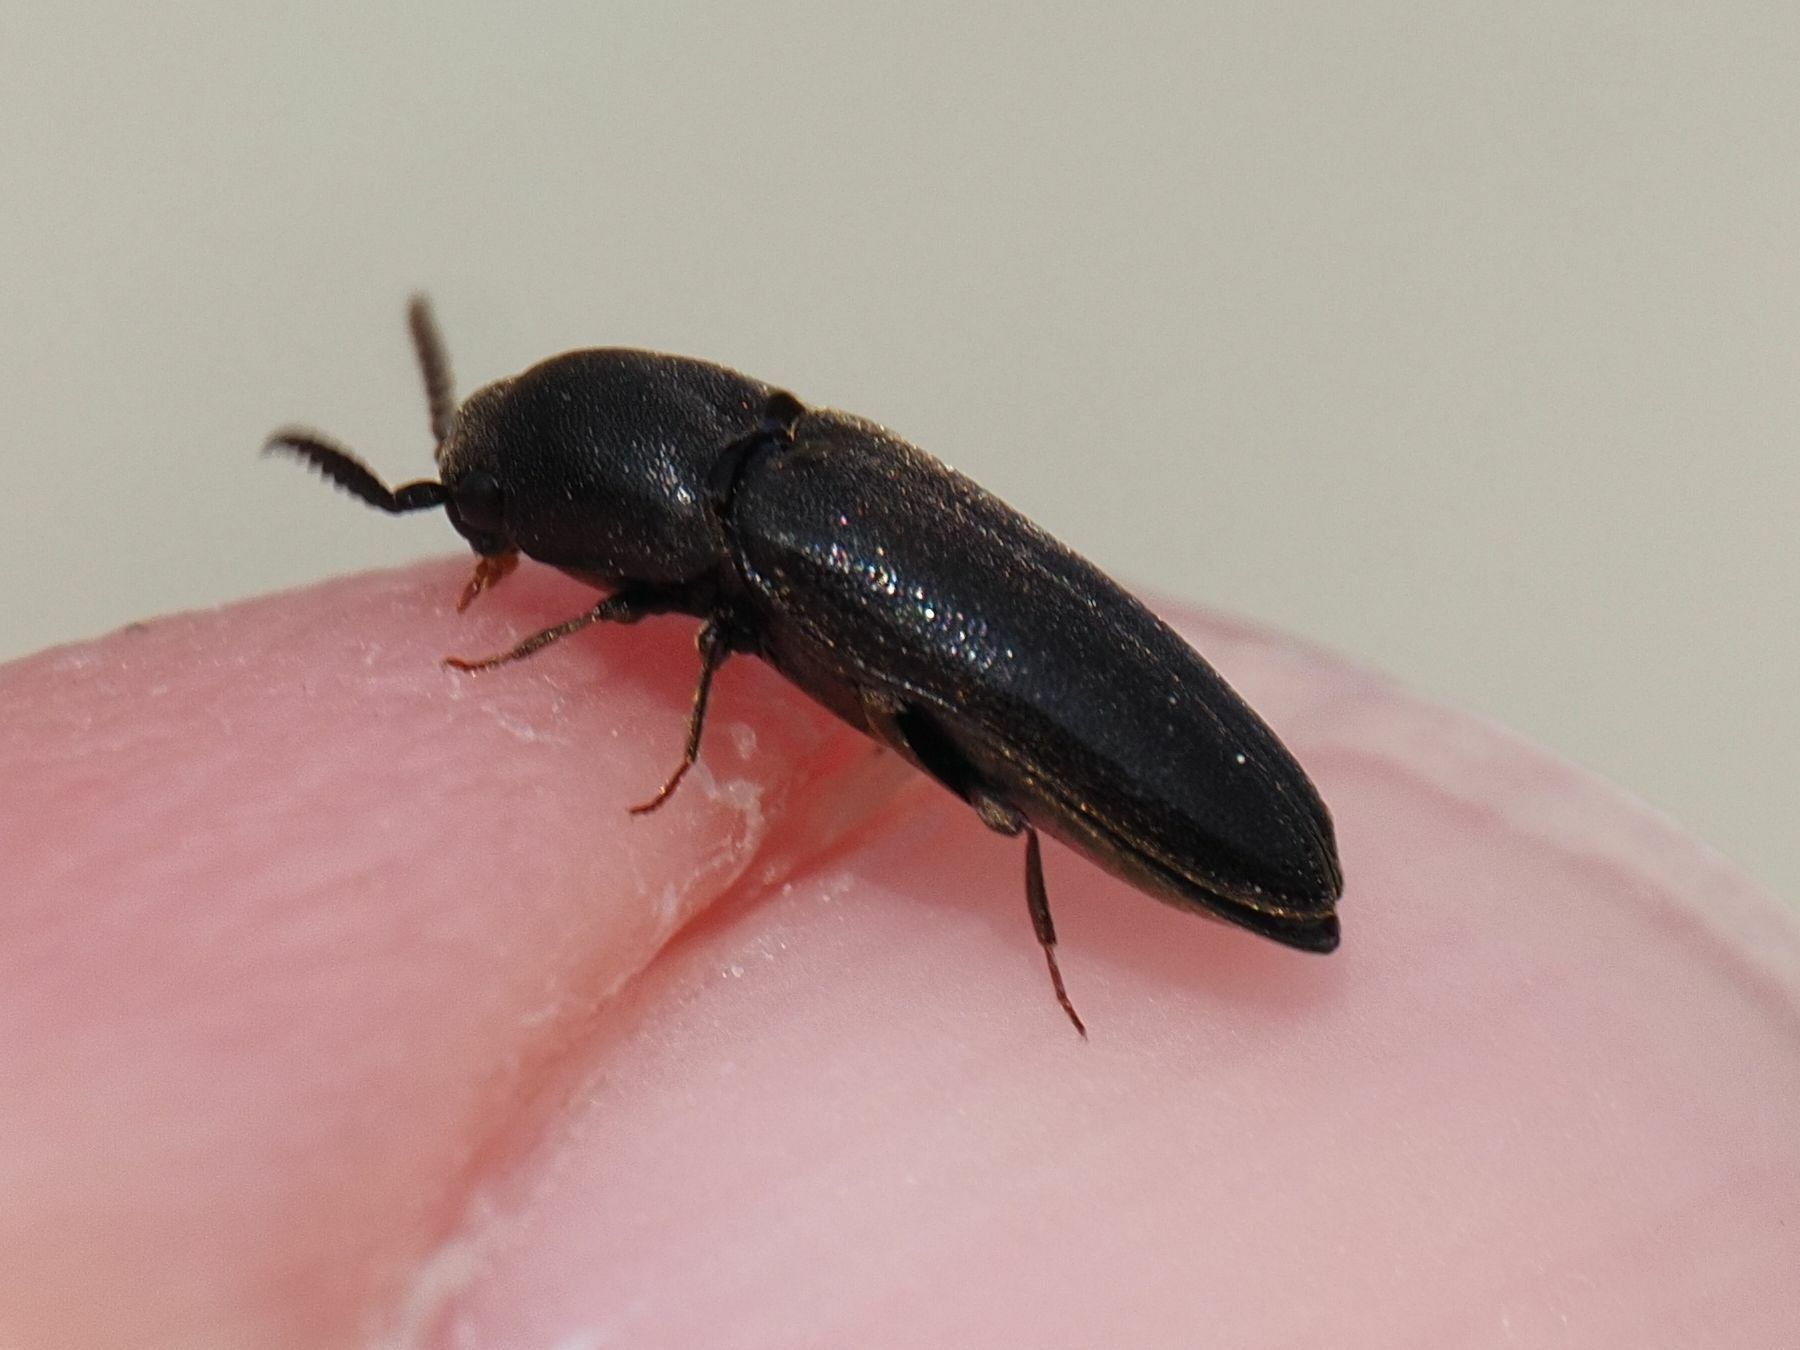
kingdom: Animalia
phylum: Arthropoda
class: Insecta
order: Coleoptera
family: Eucnemidae
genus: Eucnemis
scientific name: Eucnemis capucina
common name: False click beetle
